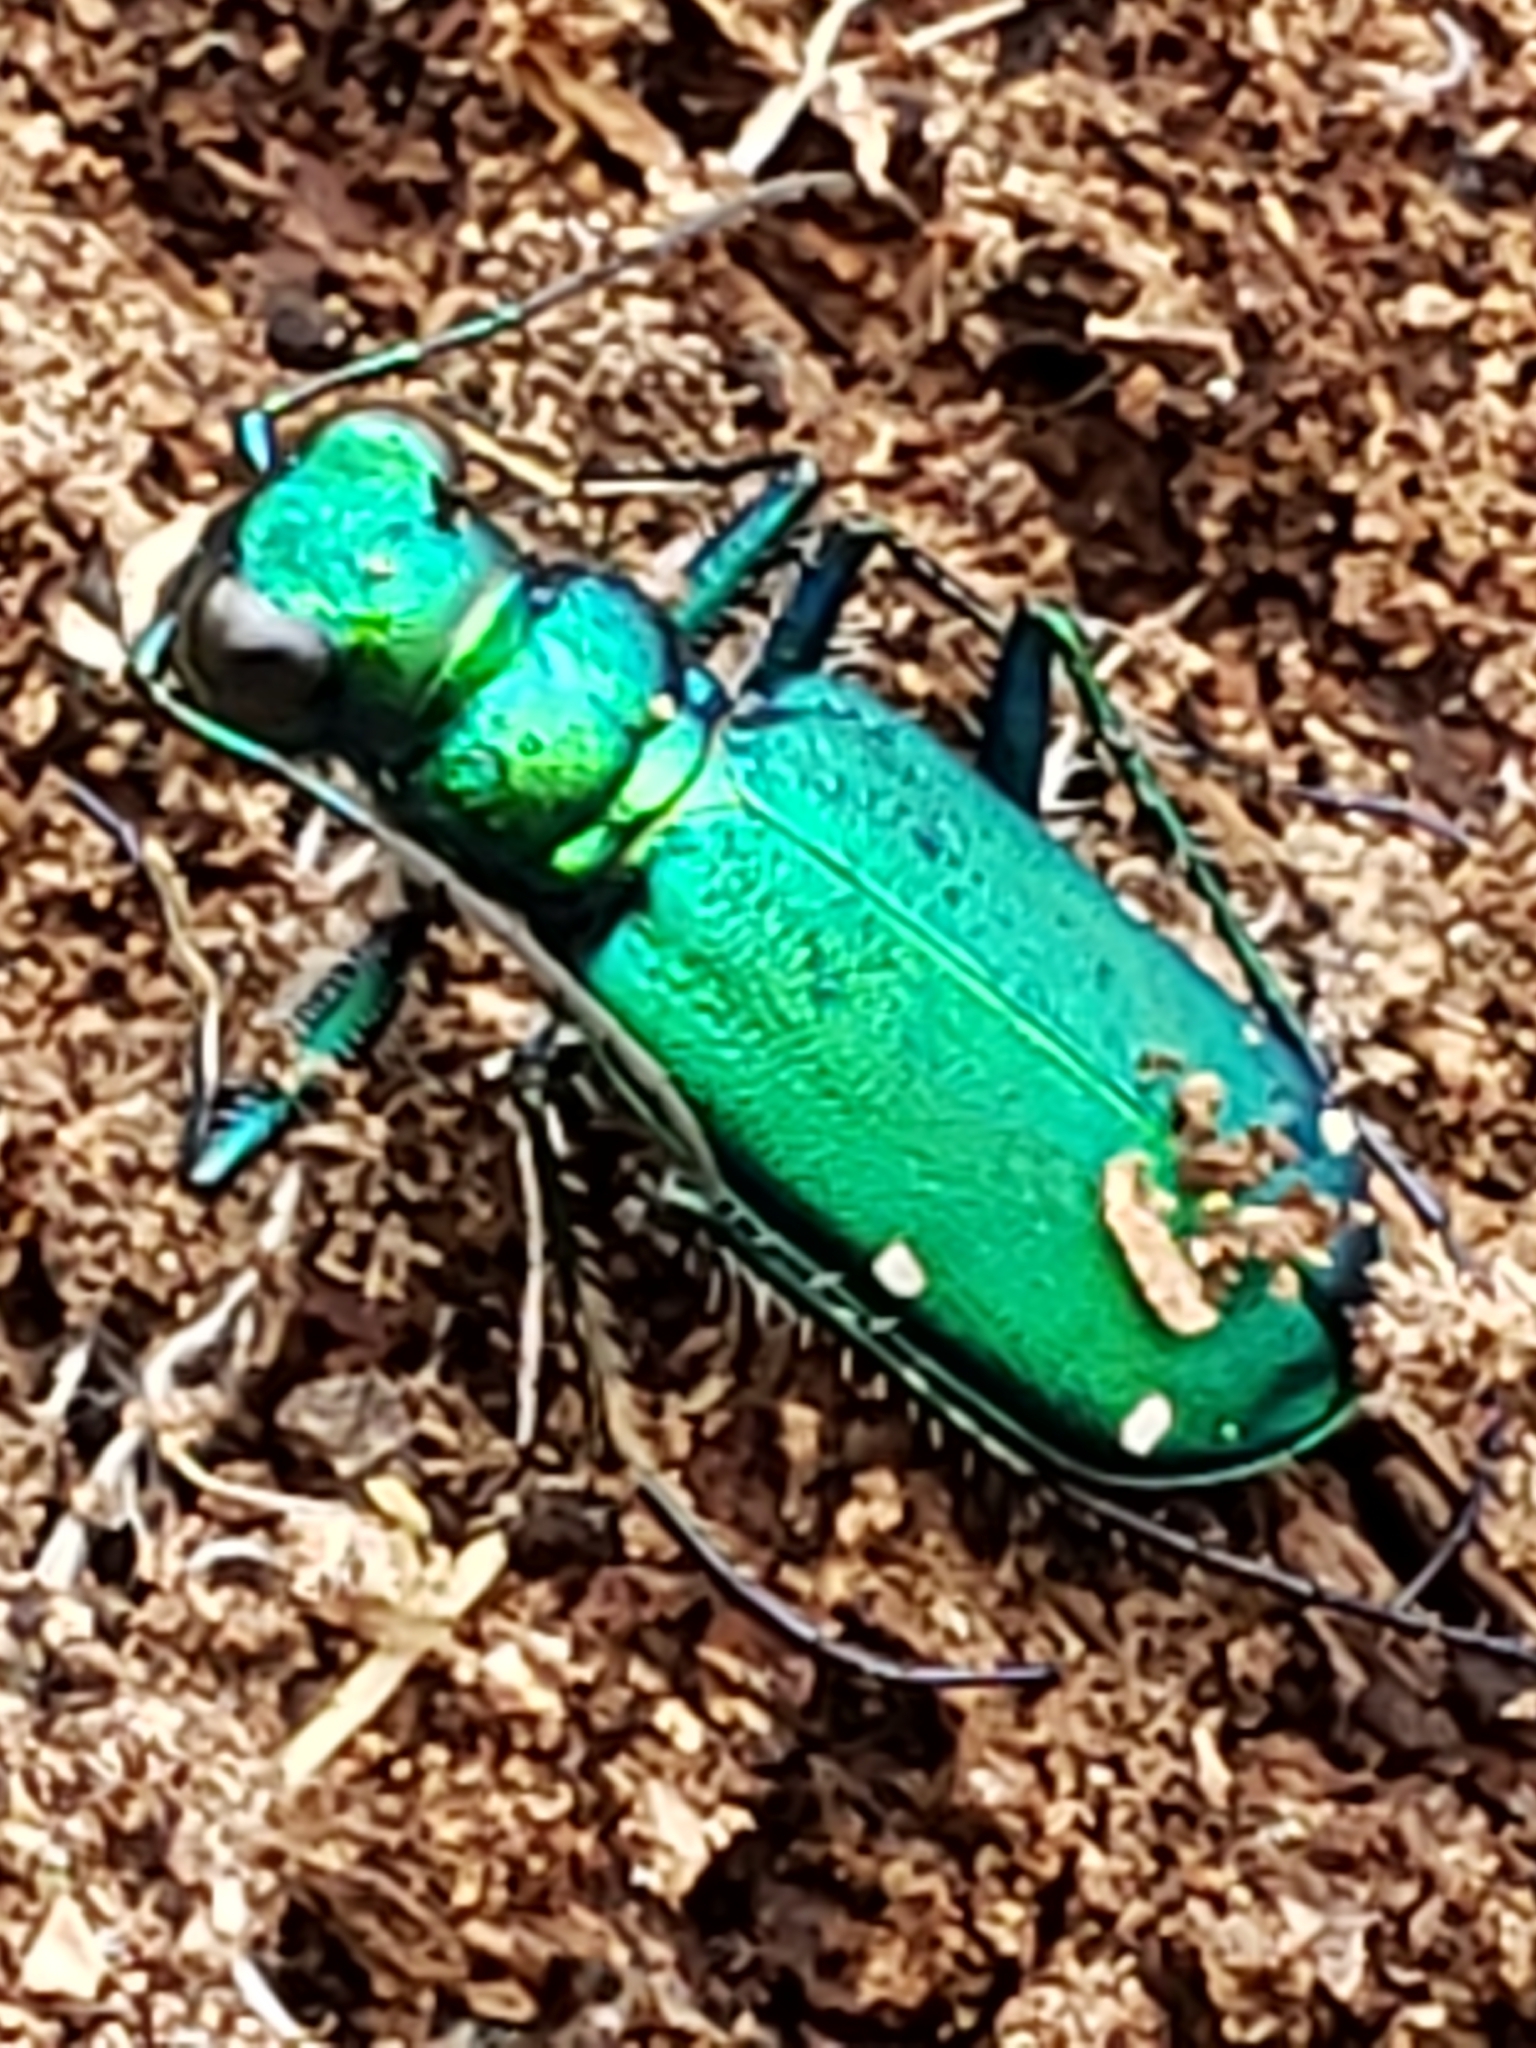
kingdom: Animalia
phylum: Arthropoda
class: Insecta
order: Coleoptera
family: Carabidae
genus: Cicindela
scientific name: Cicindela sexguttata
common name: Six-spotted tiger beetle
